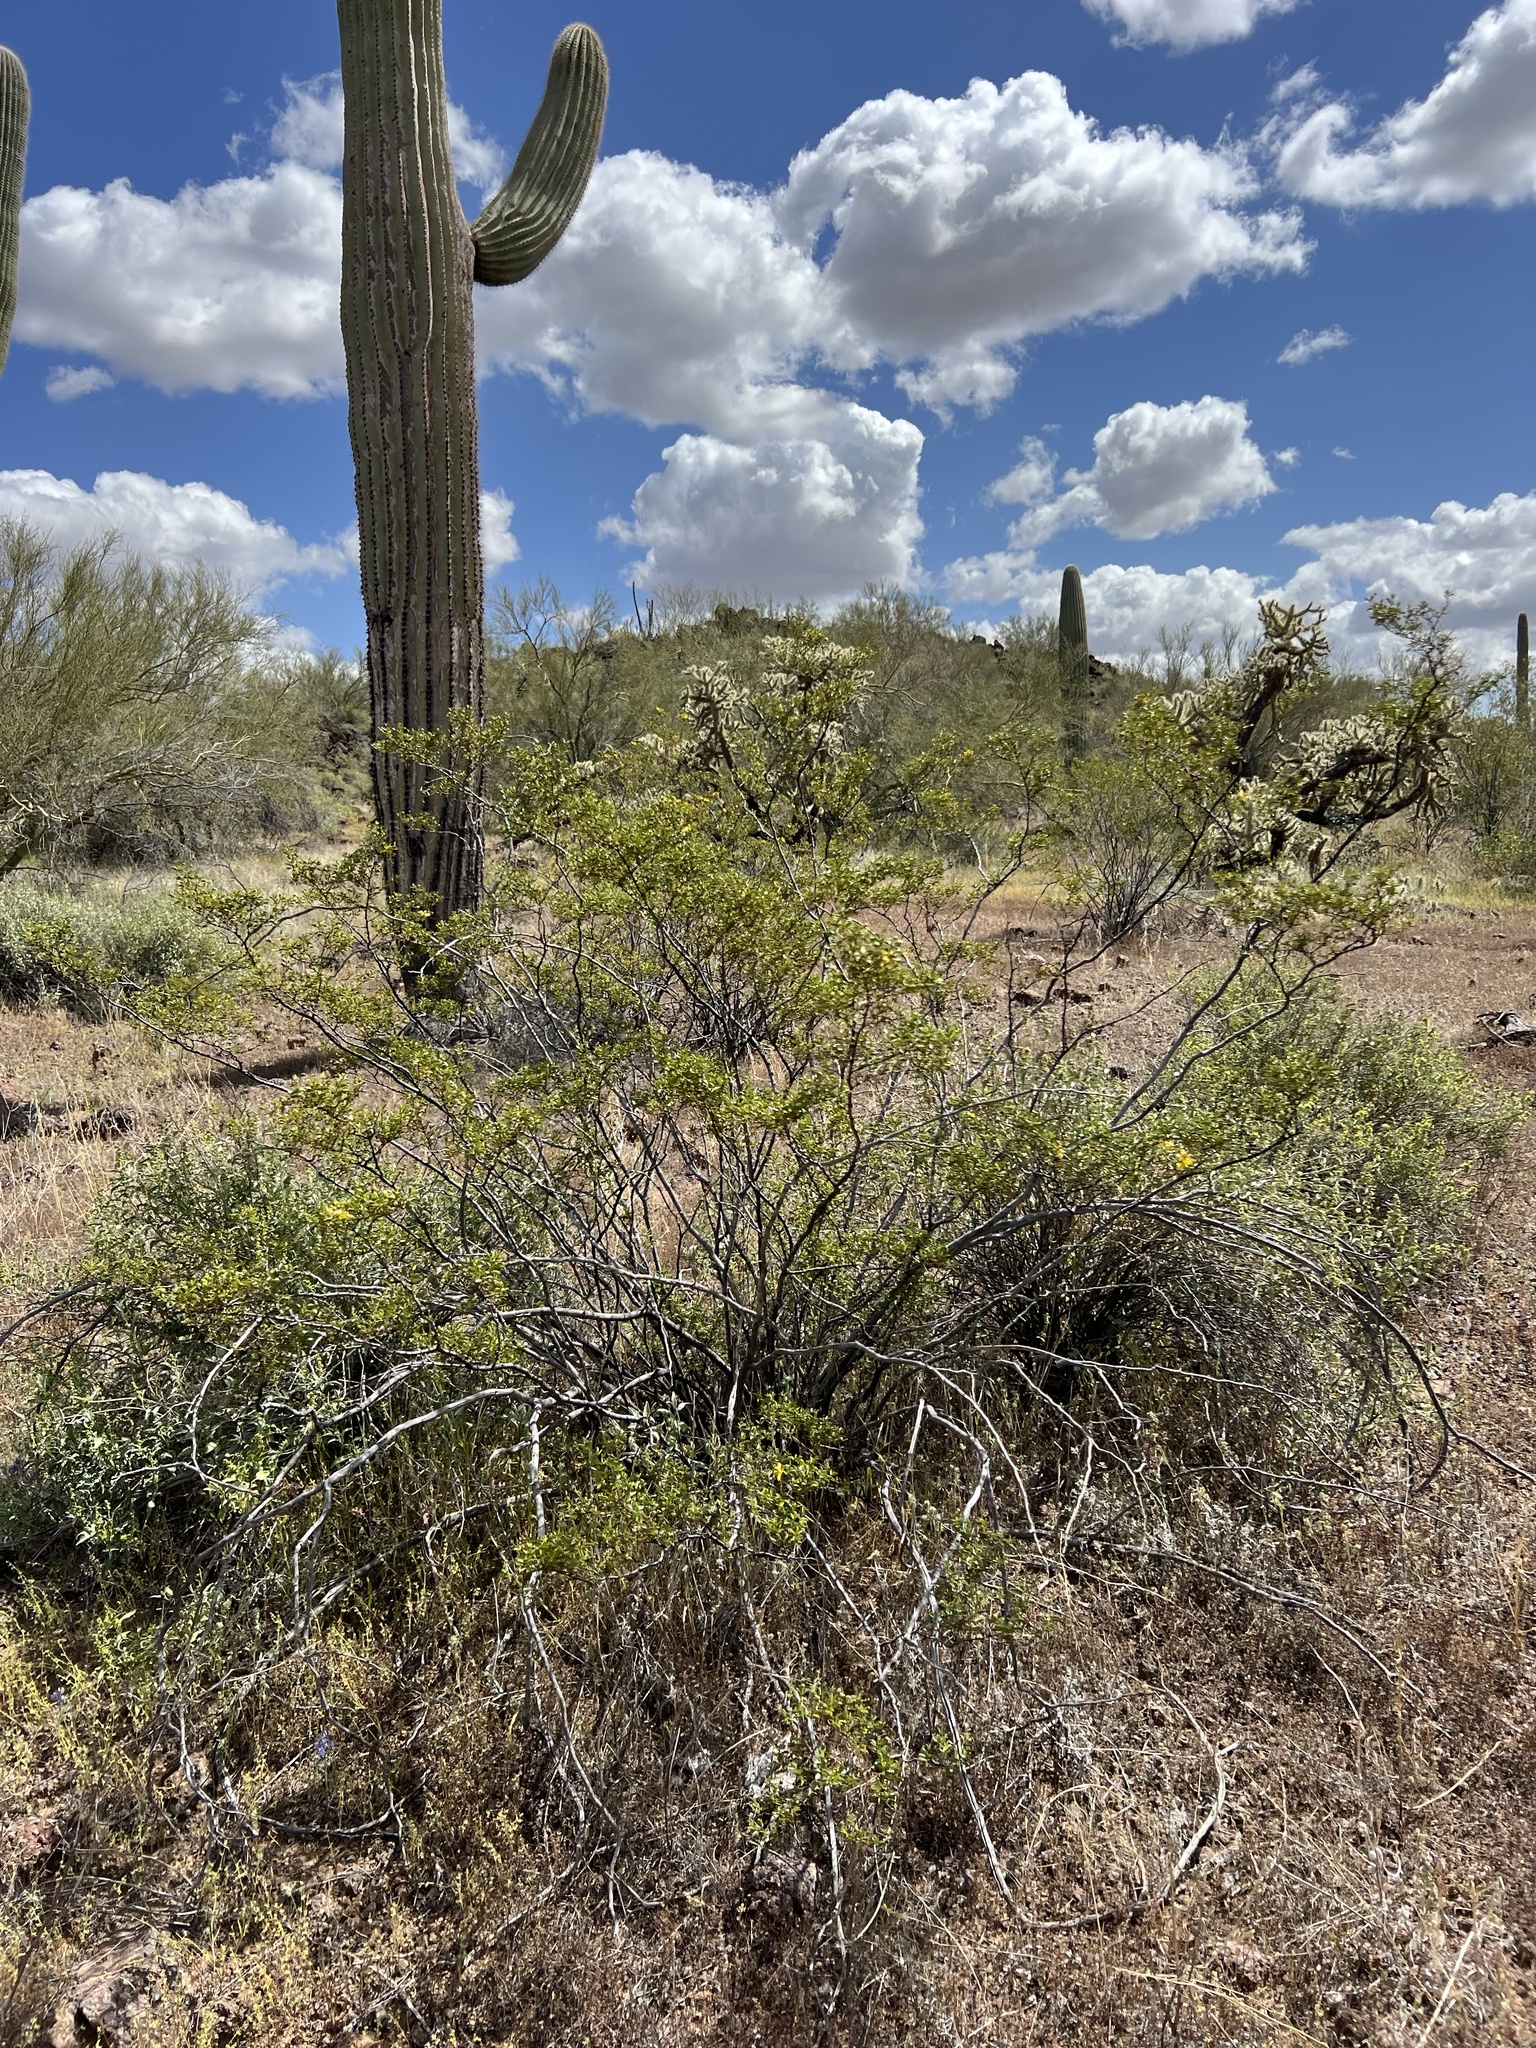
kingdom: Plantae
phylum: Tracheophyta
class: Magnoliopsida
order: Zygophyllales
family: Zygophyllaceae
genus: Larrea
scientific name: Larrea tridentata
